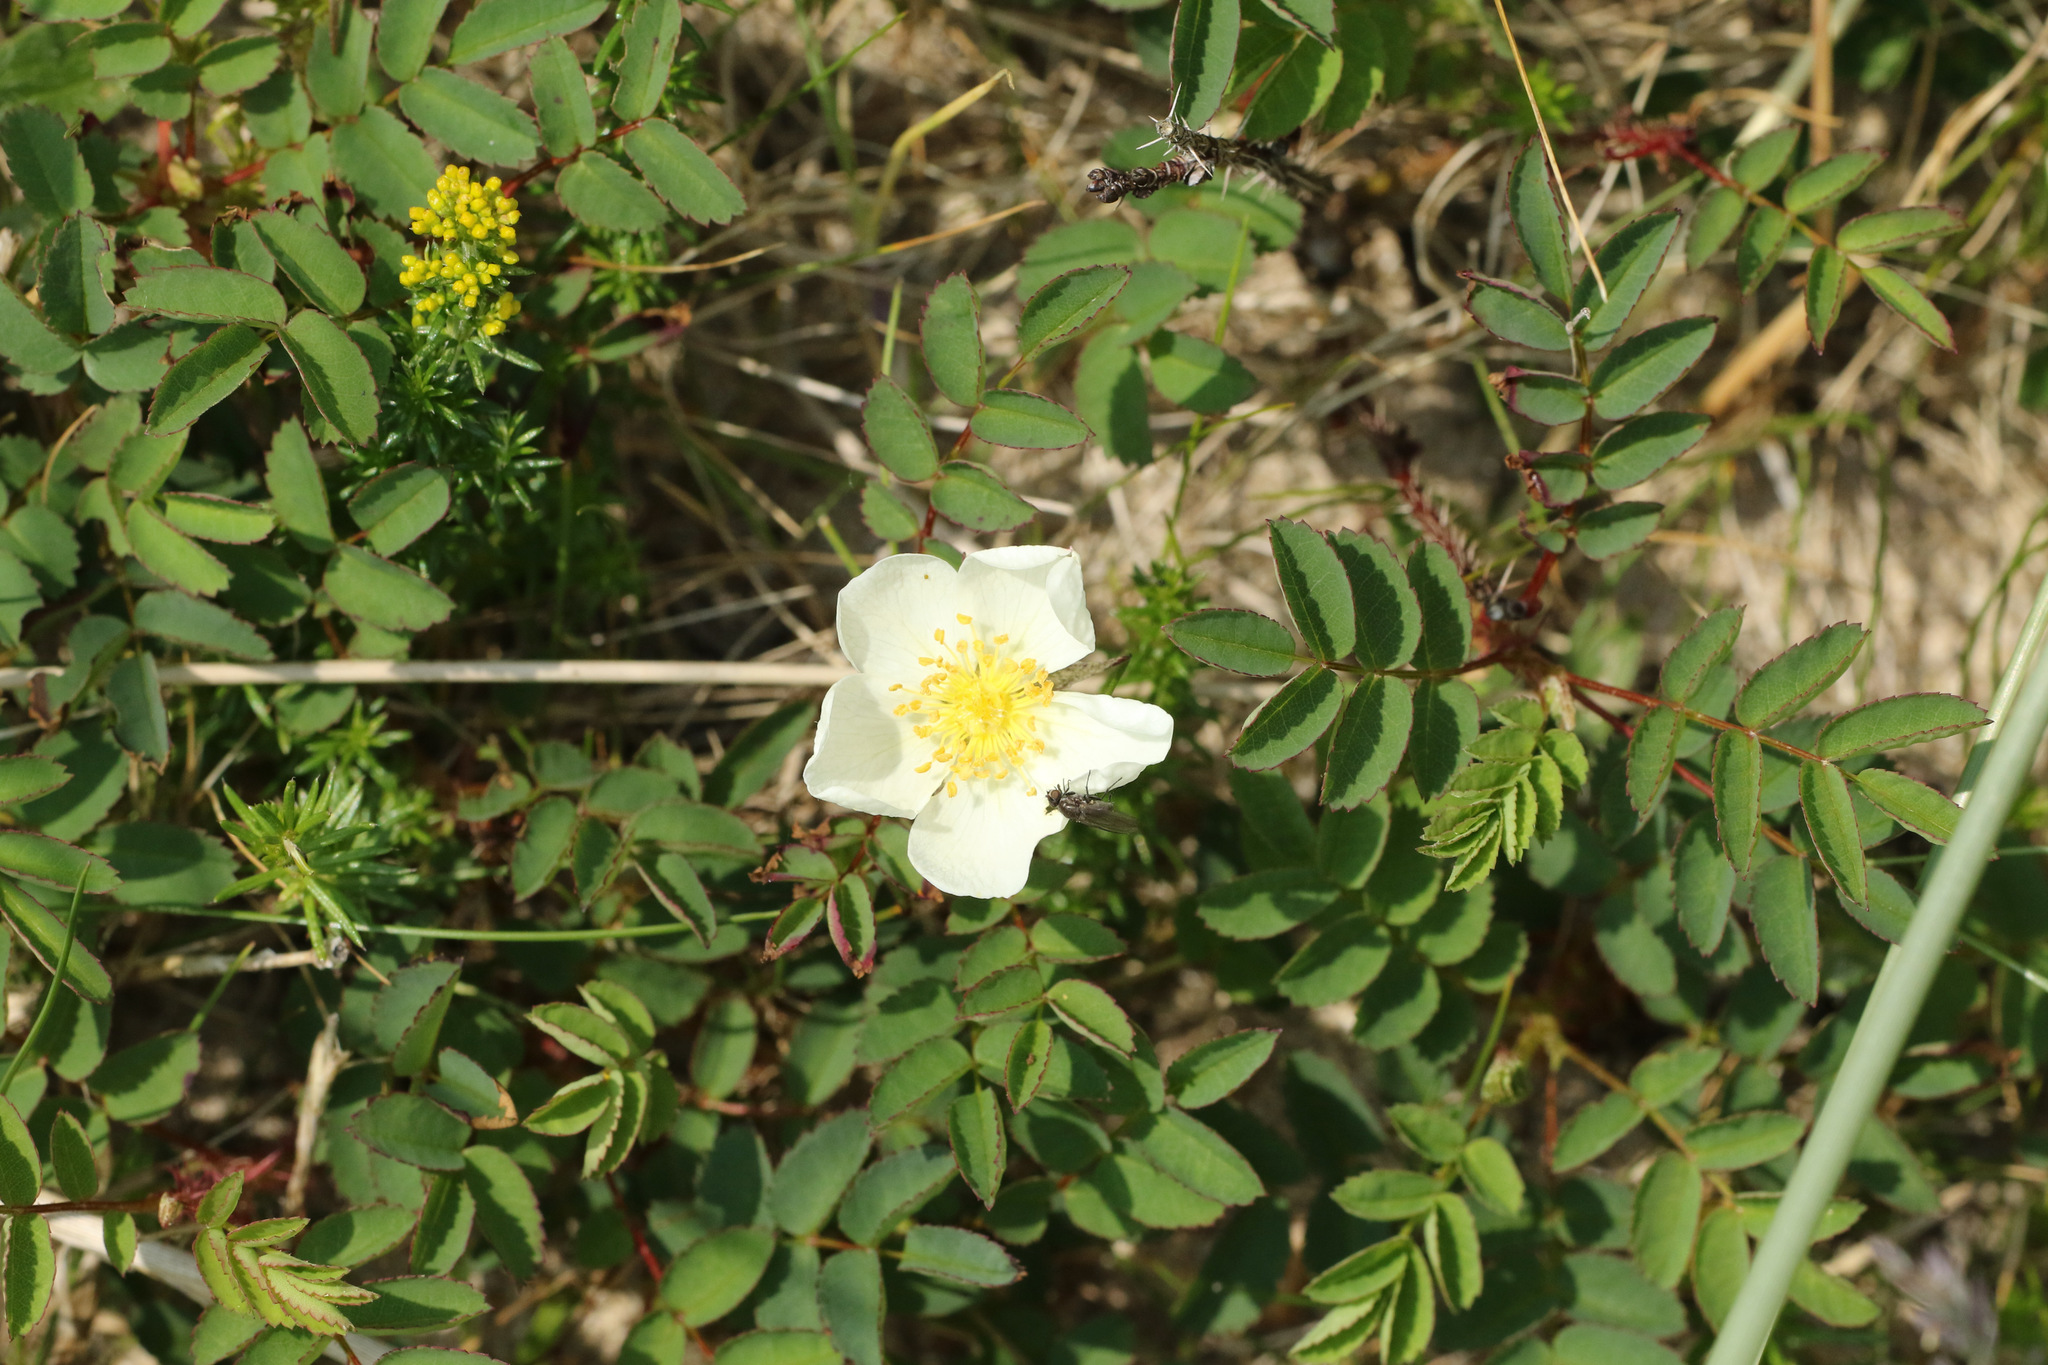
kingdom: Plantae
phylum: Tracheophyta
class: Magnoliopsida
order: Rosales
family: Rosaceae
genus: Rosa
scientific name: Rosa spinosissima
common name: Burnet rose
